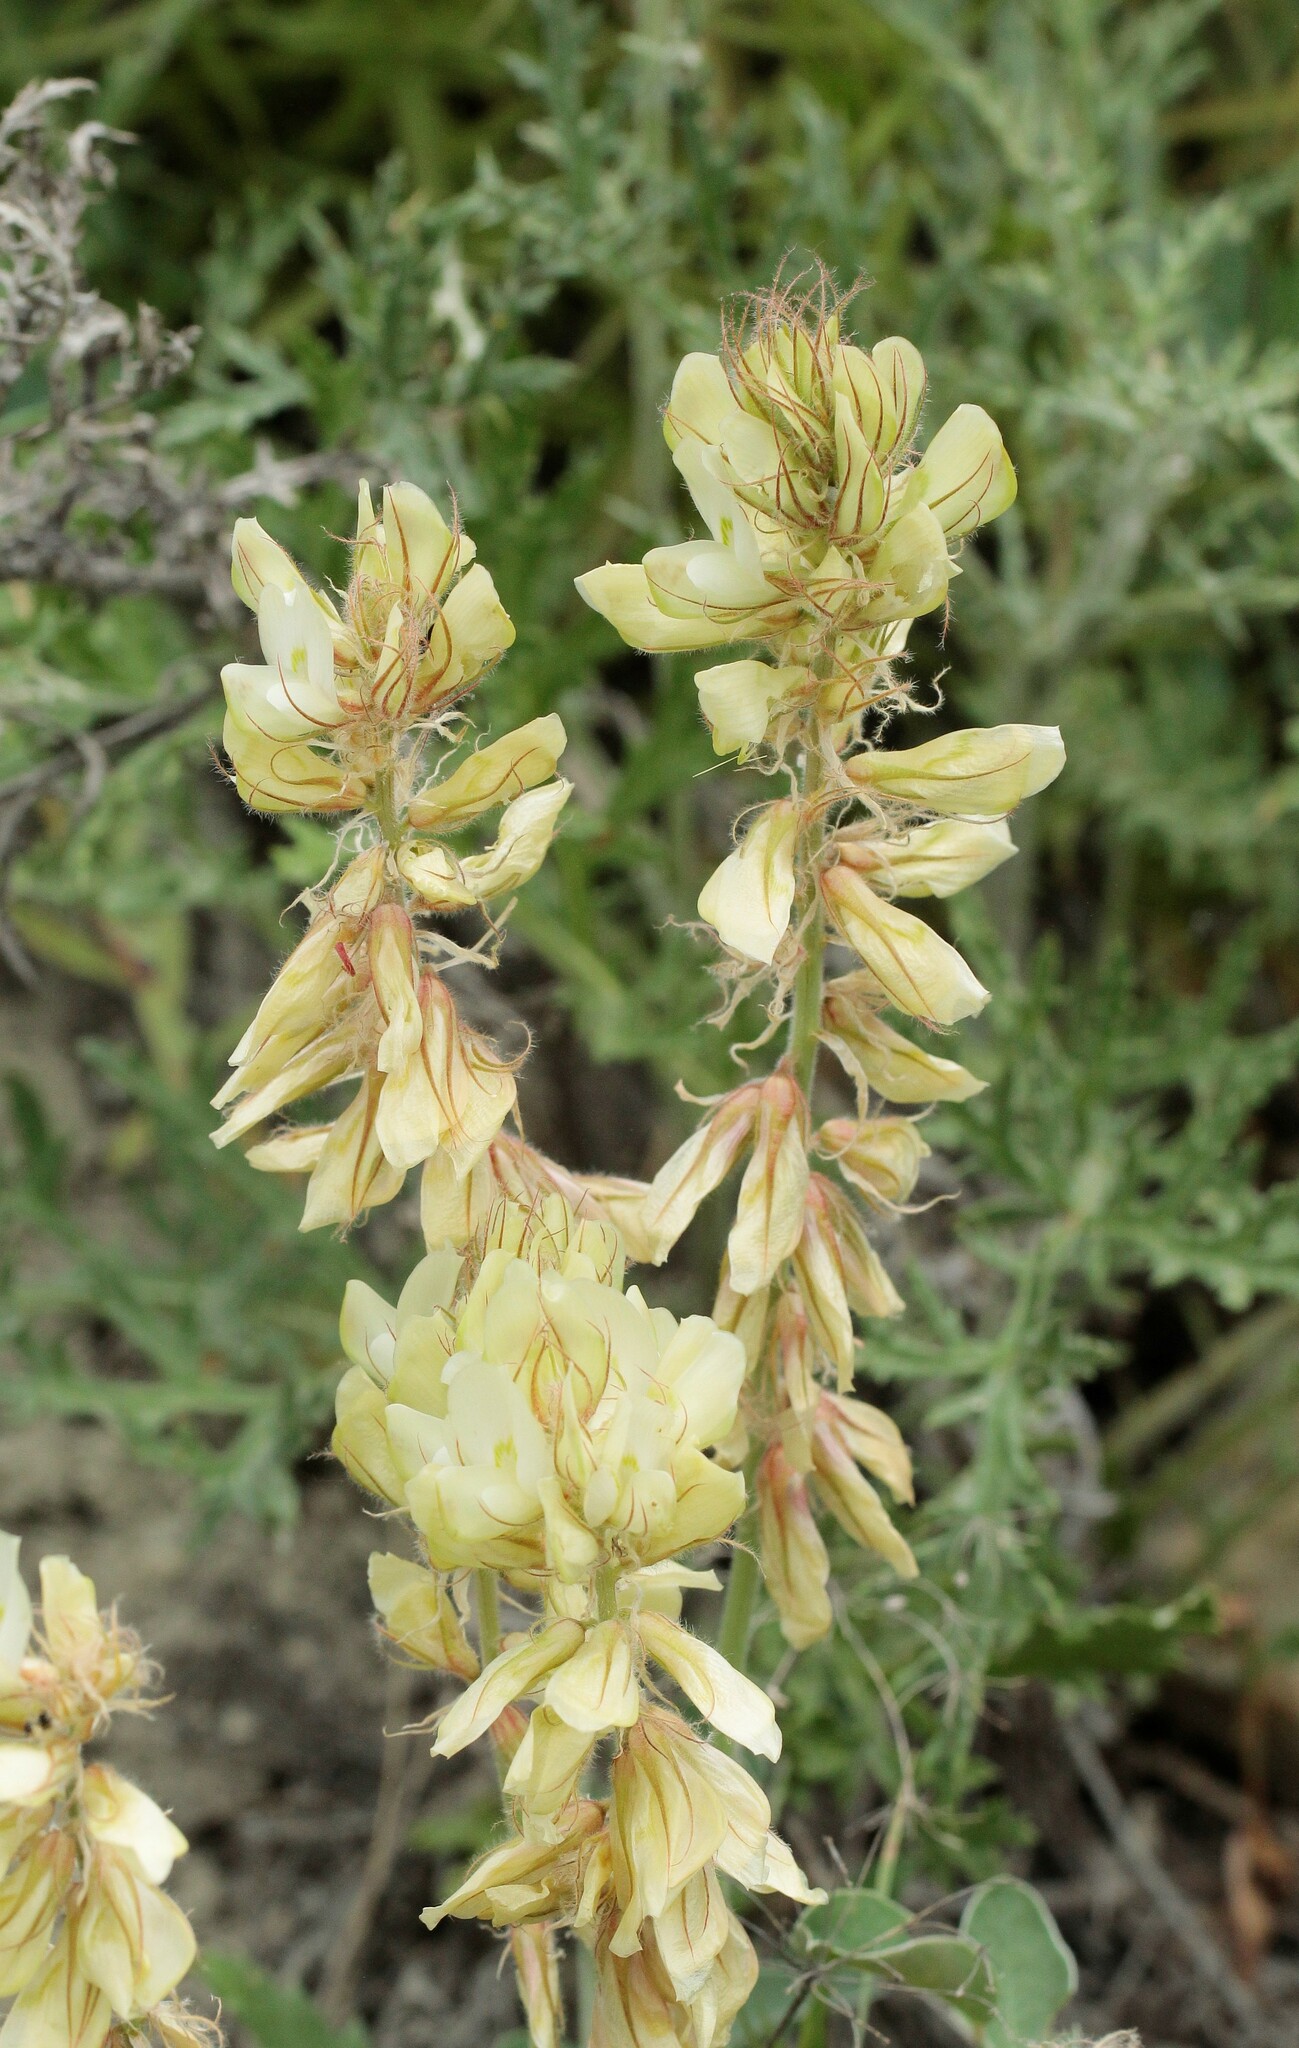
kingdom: Plantae
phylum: Tracheophyta
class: Magnoliopsida
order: Fabales
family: Fabaceae
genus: Hedysarum
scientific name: Hedysarum grandiflorum
